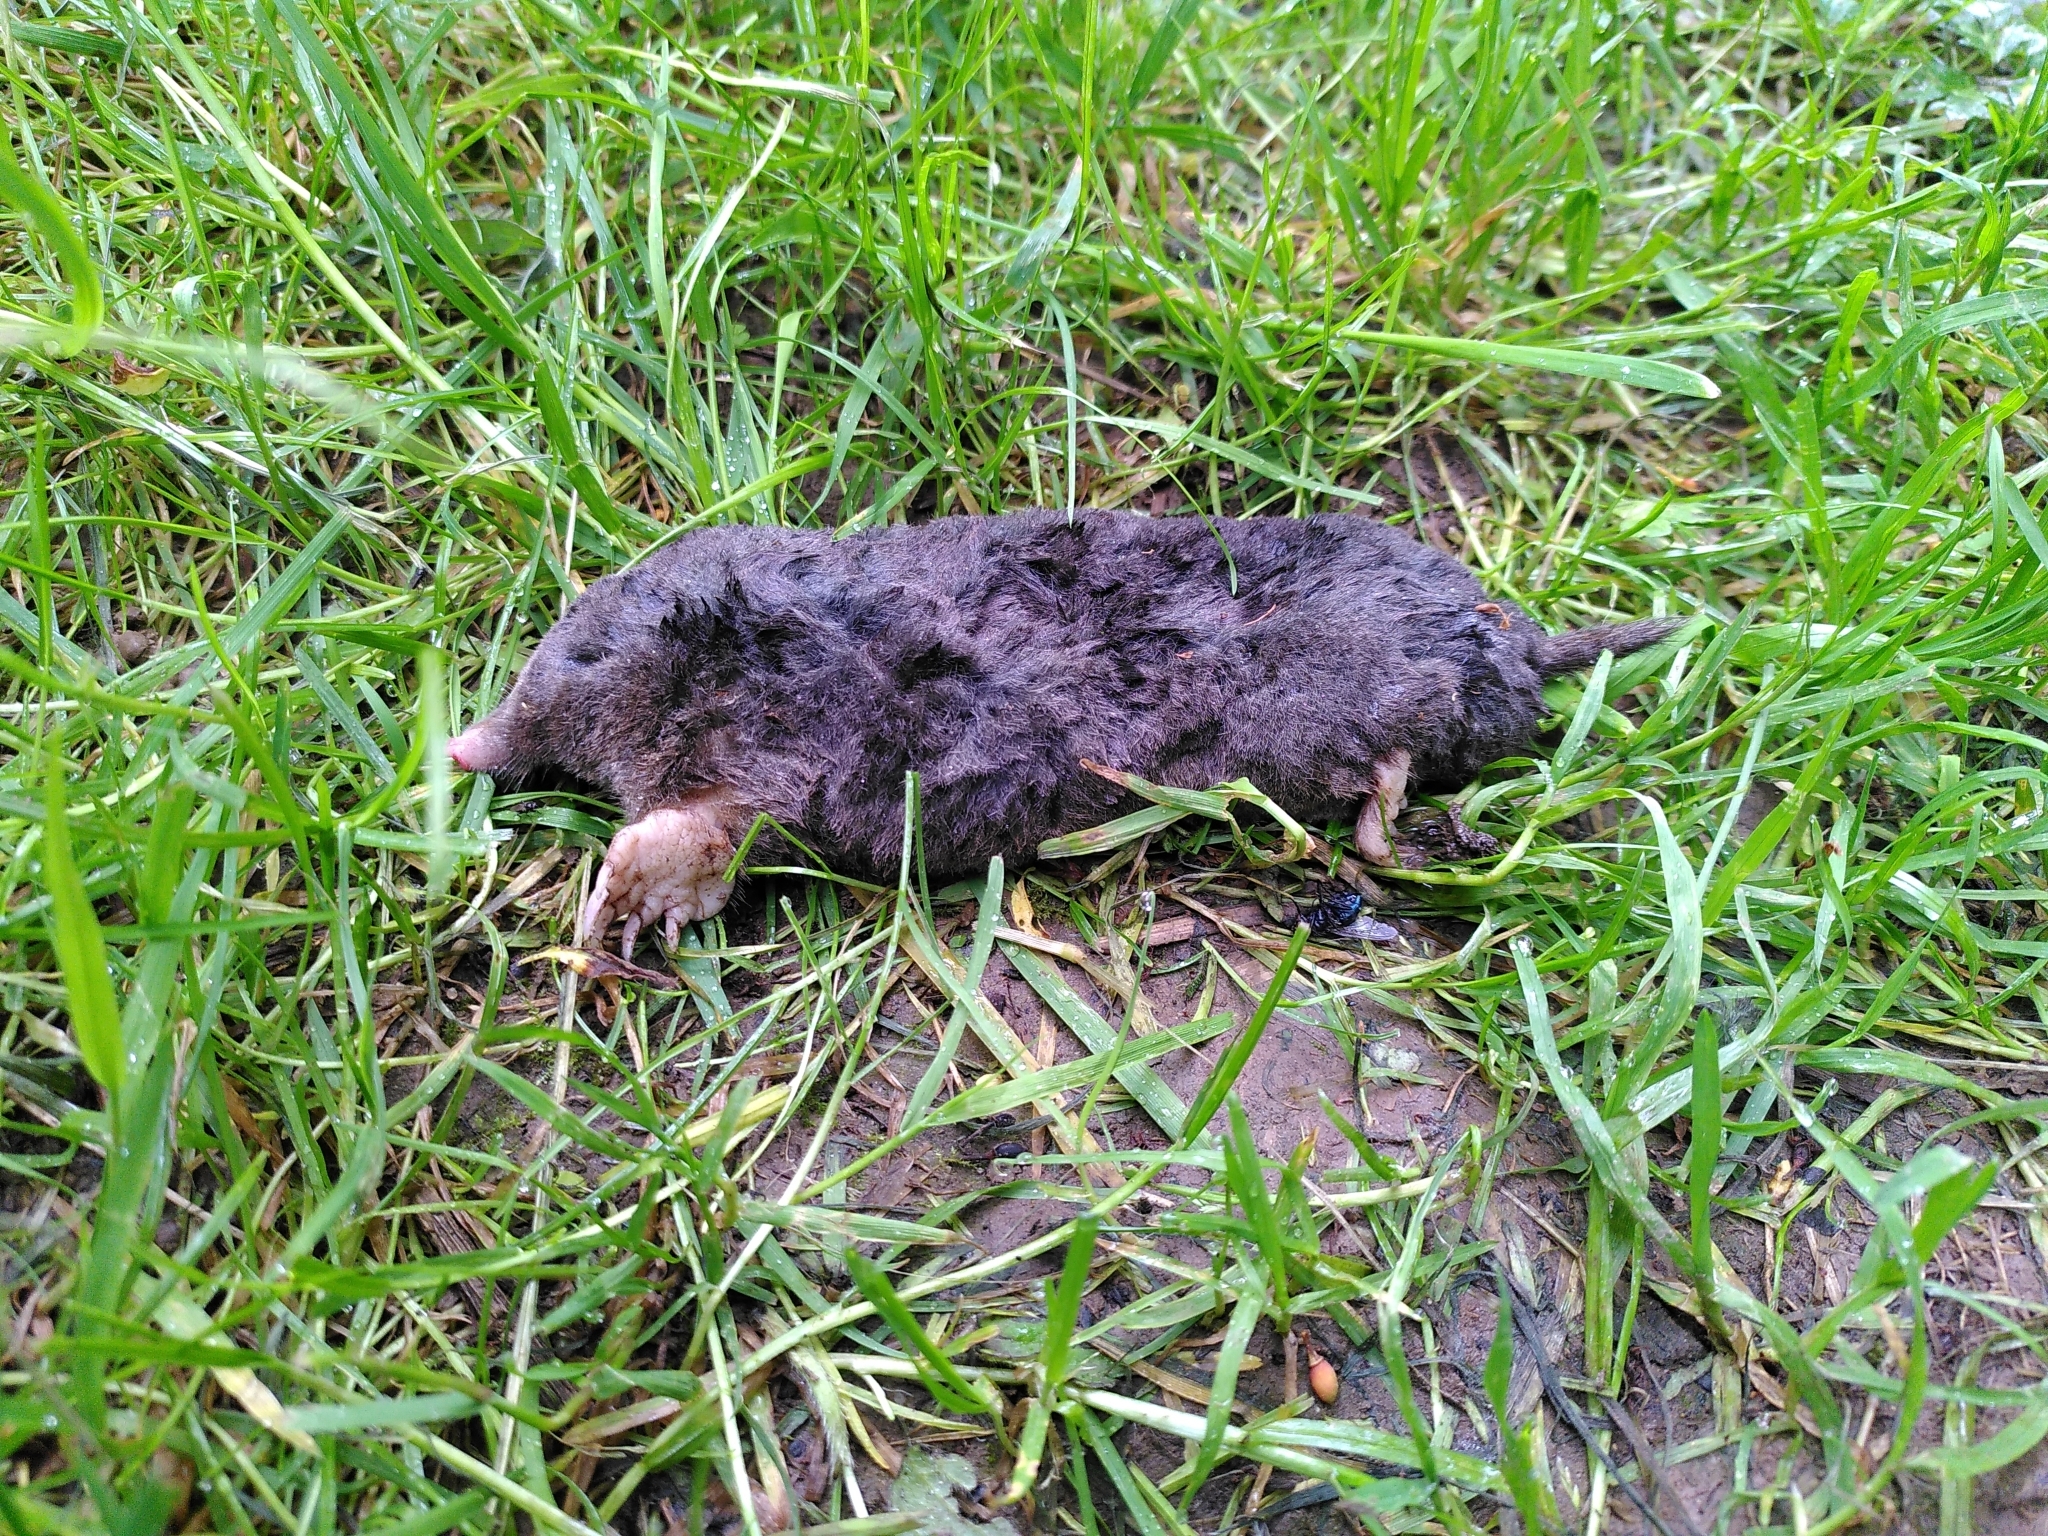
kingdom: Animalia
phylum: Chordata
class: Mammalia
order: Soricomorpha
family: Talpidae
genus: Talpa
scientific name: Talpa europaea
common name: European mole
